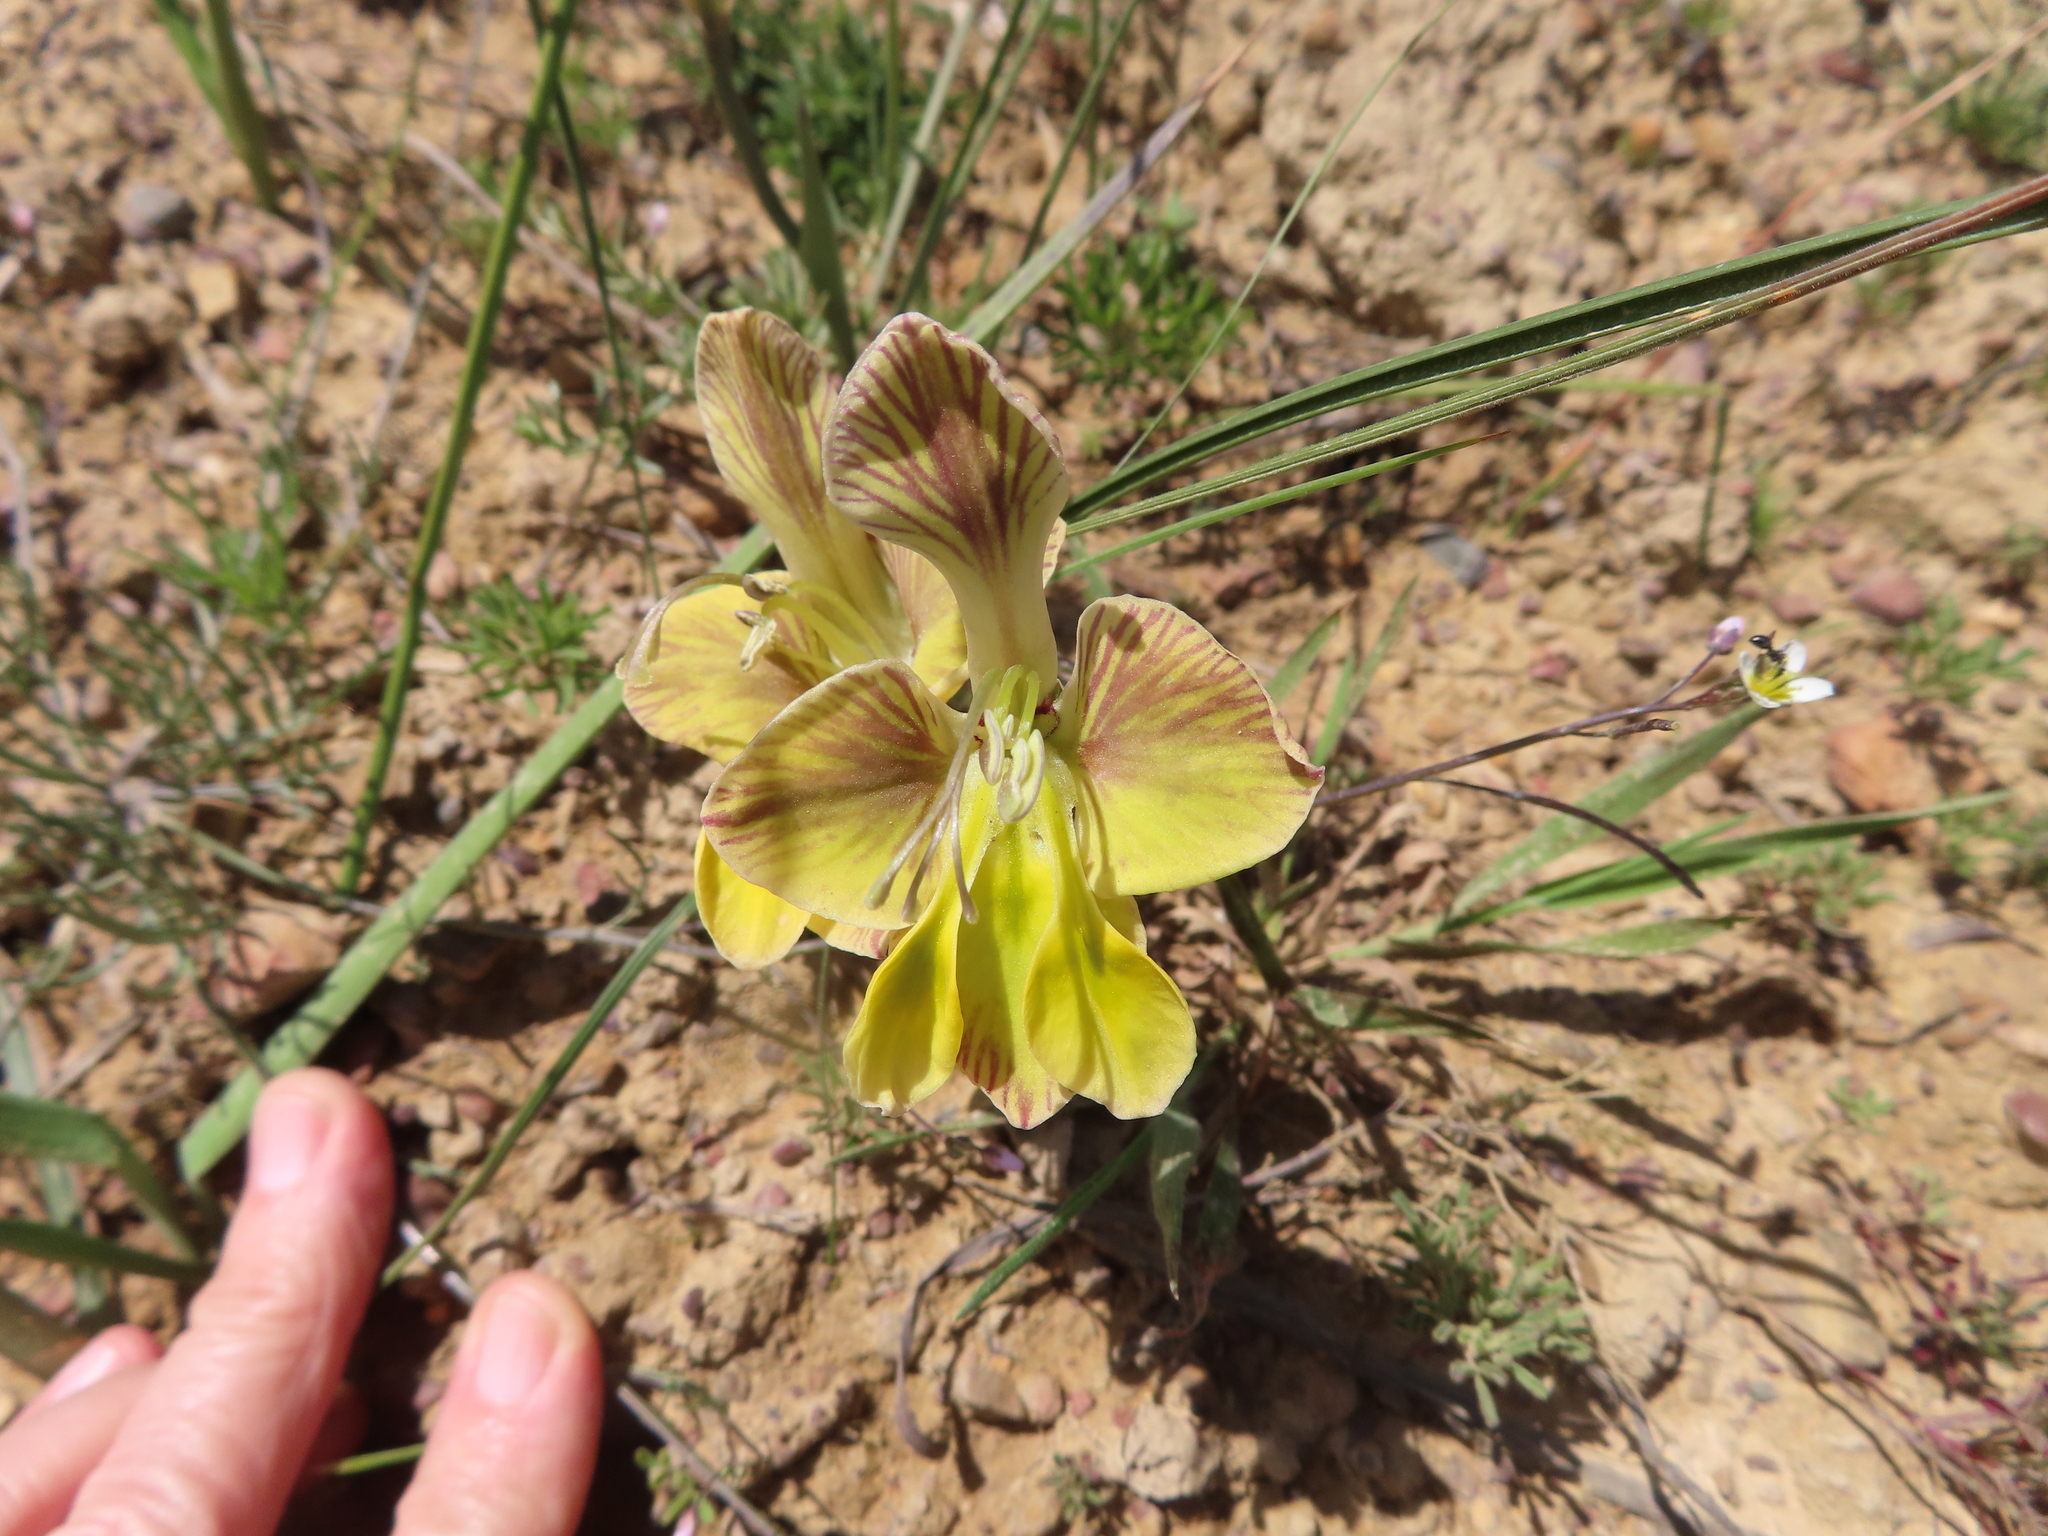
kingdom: Plantae
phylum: Tracheophyta
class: Liliopsida
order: Asparagales
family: Iridaceae
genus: Gladiolus
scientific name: Gladiolus virescens
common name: Yellow kalkoentjie
